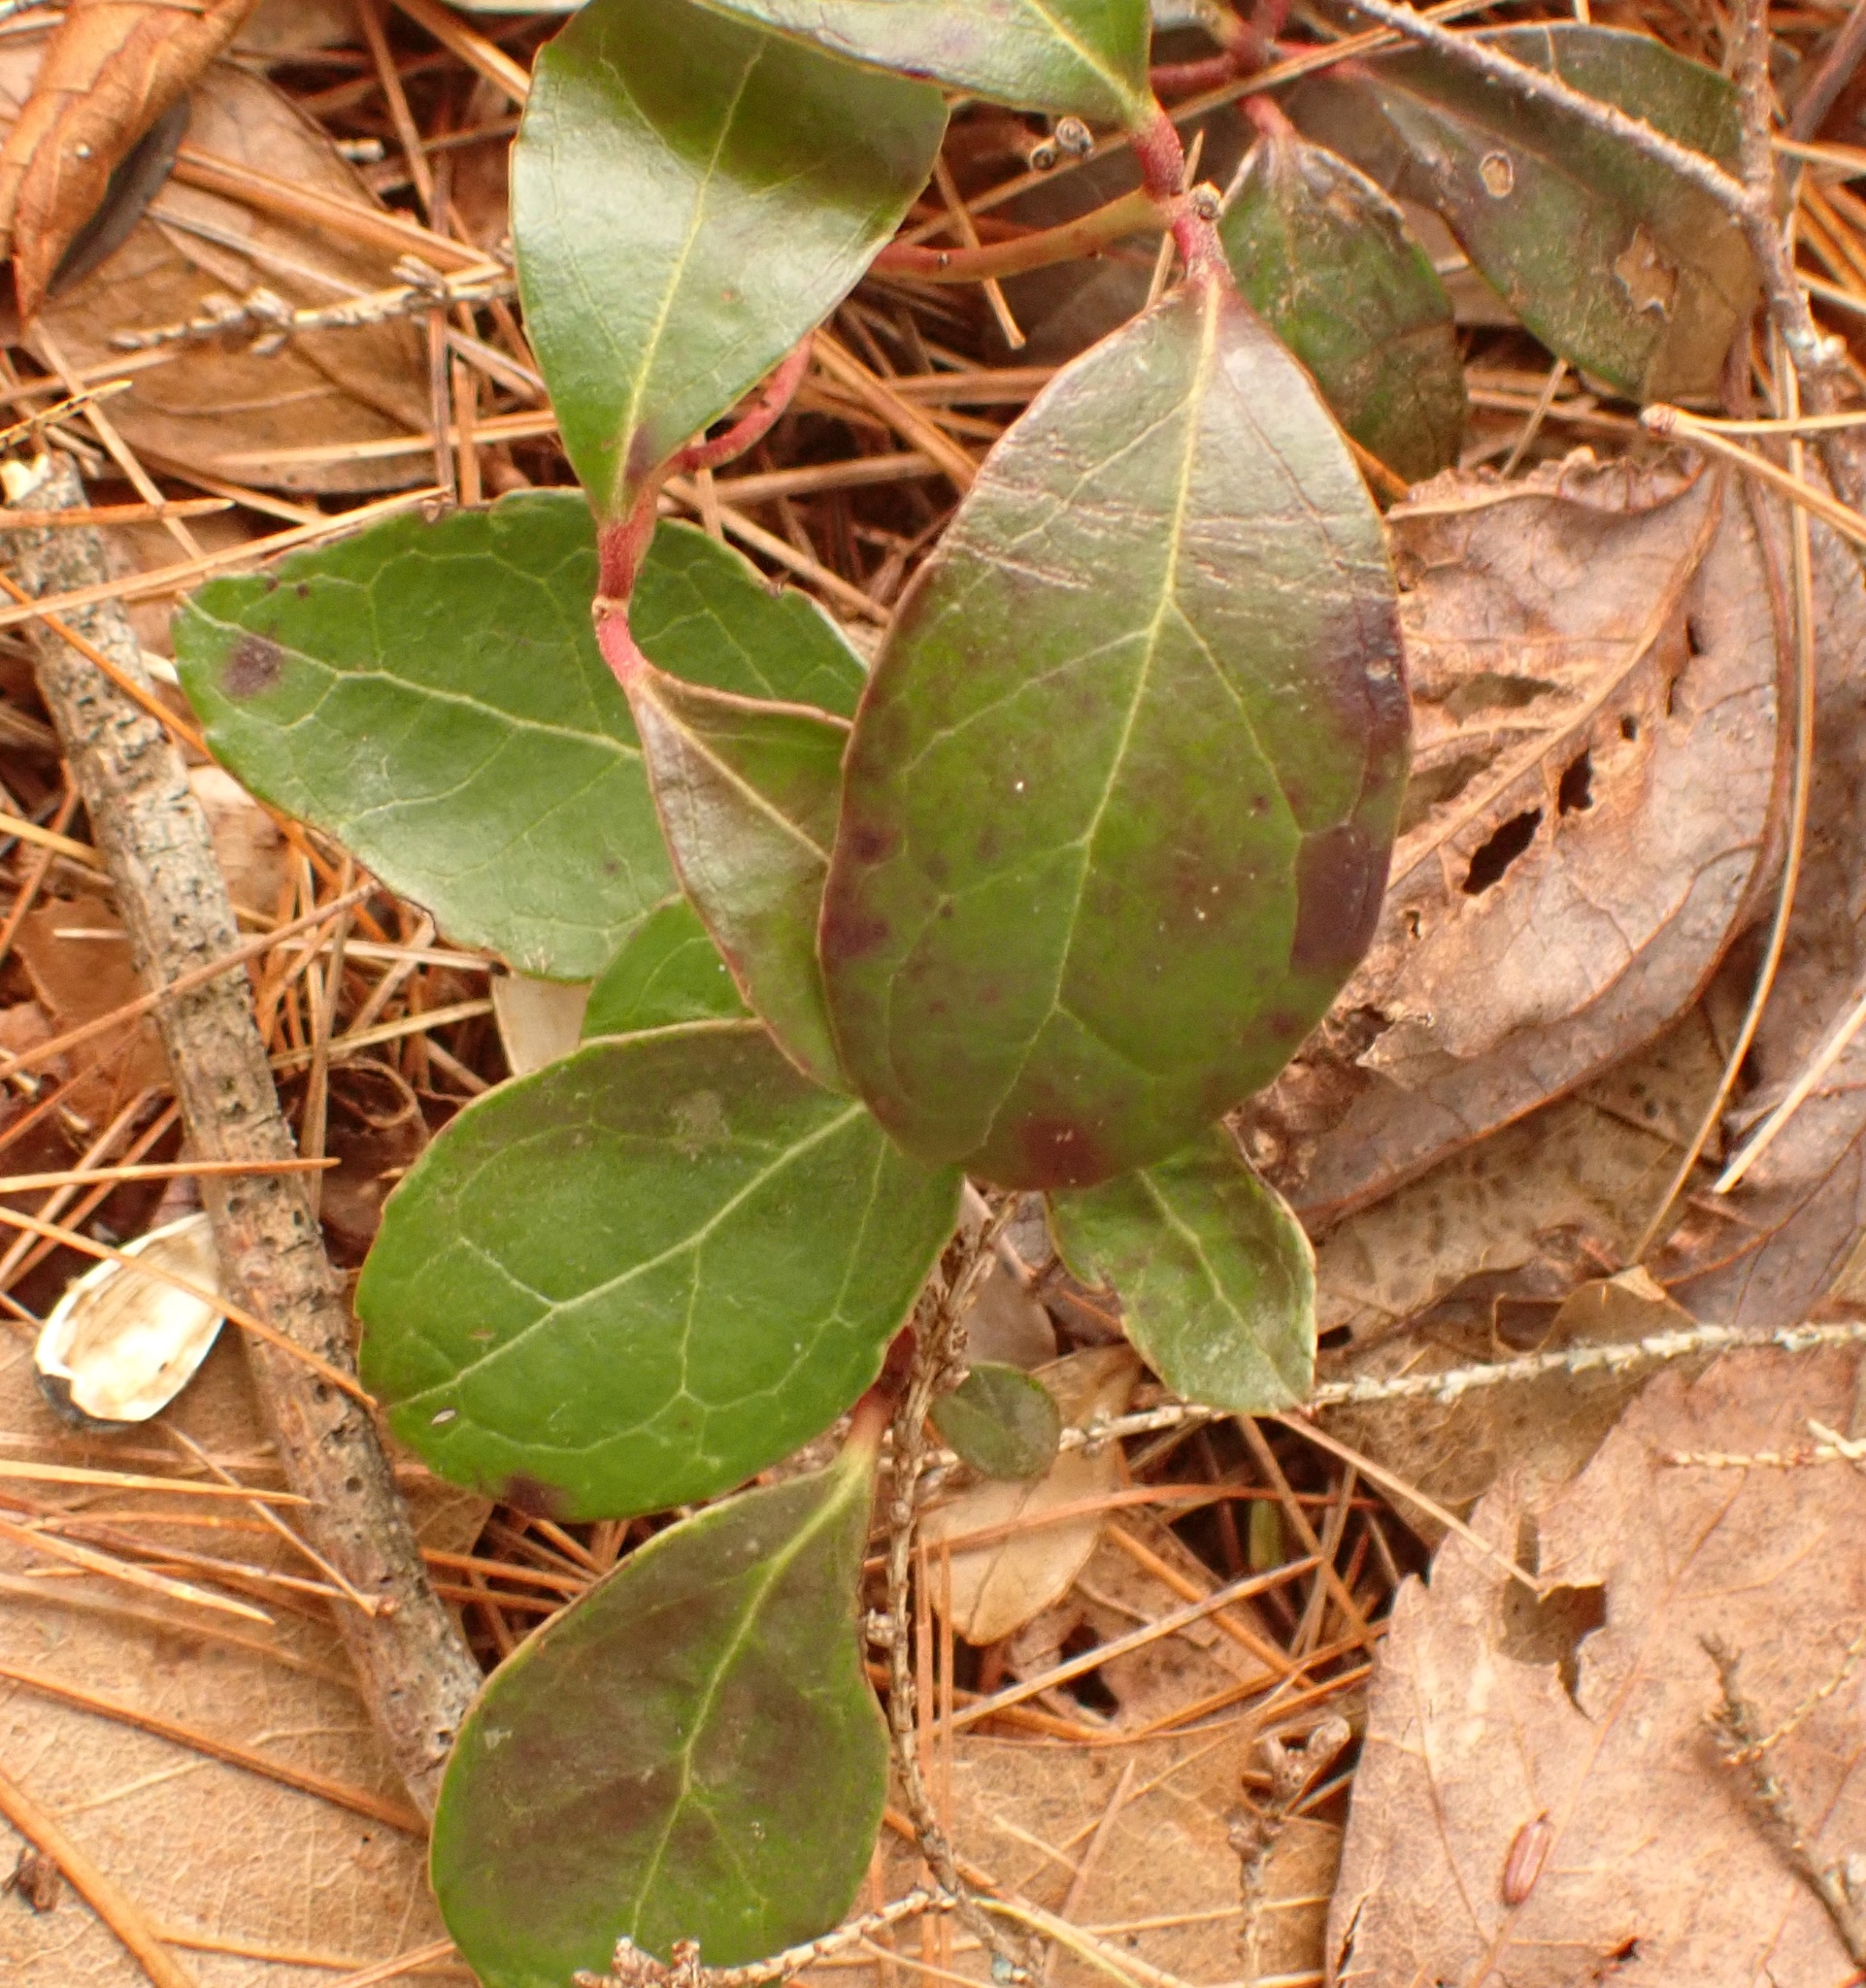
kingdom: Plantae
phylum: Tracheophyta
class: Magnoliopsida
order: Ericales
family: Ericaceae
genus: Gaultheria
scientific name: Gaultheria procumbens
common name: Checkerberry
